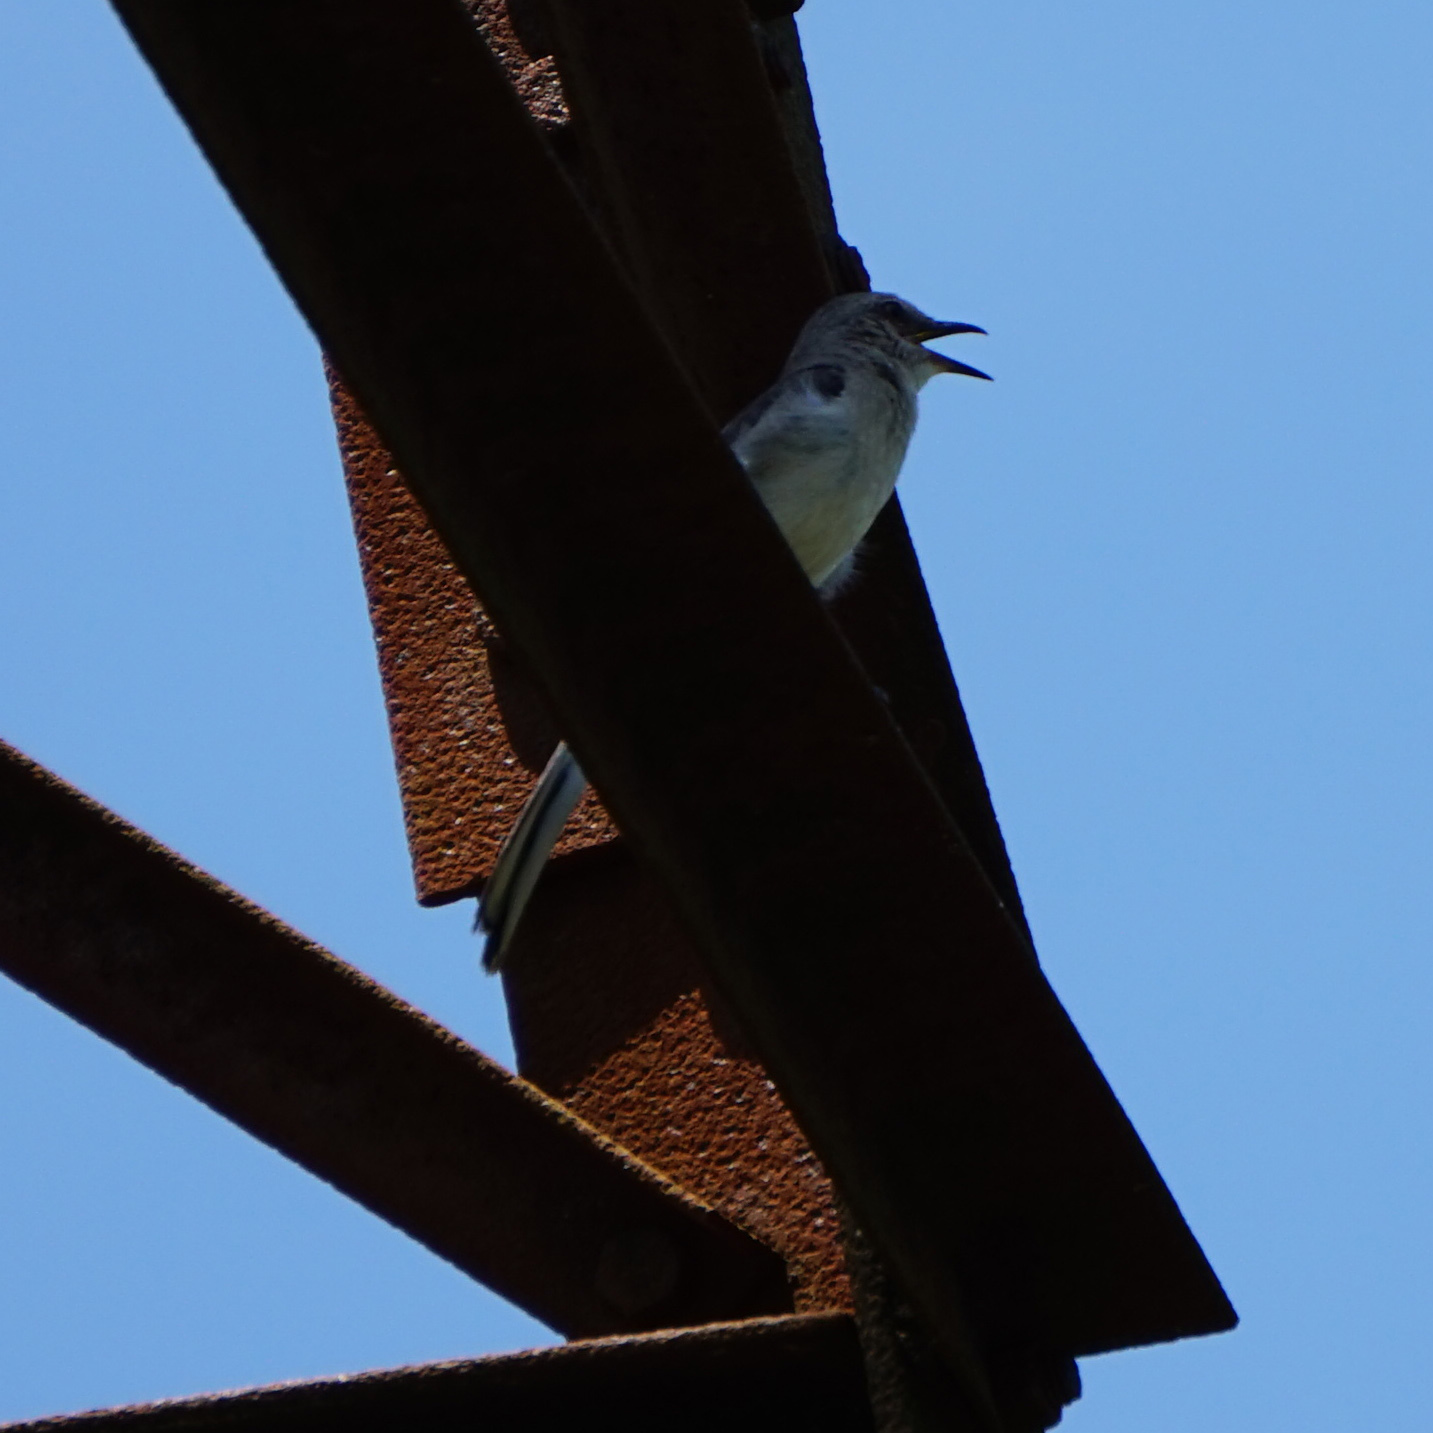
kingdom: Animalia
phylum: Chordata
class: Aves
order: Passeriformes
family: Mimidae
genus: Mimus
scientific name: Mimus polyglottos
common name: Northern mockingbird
